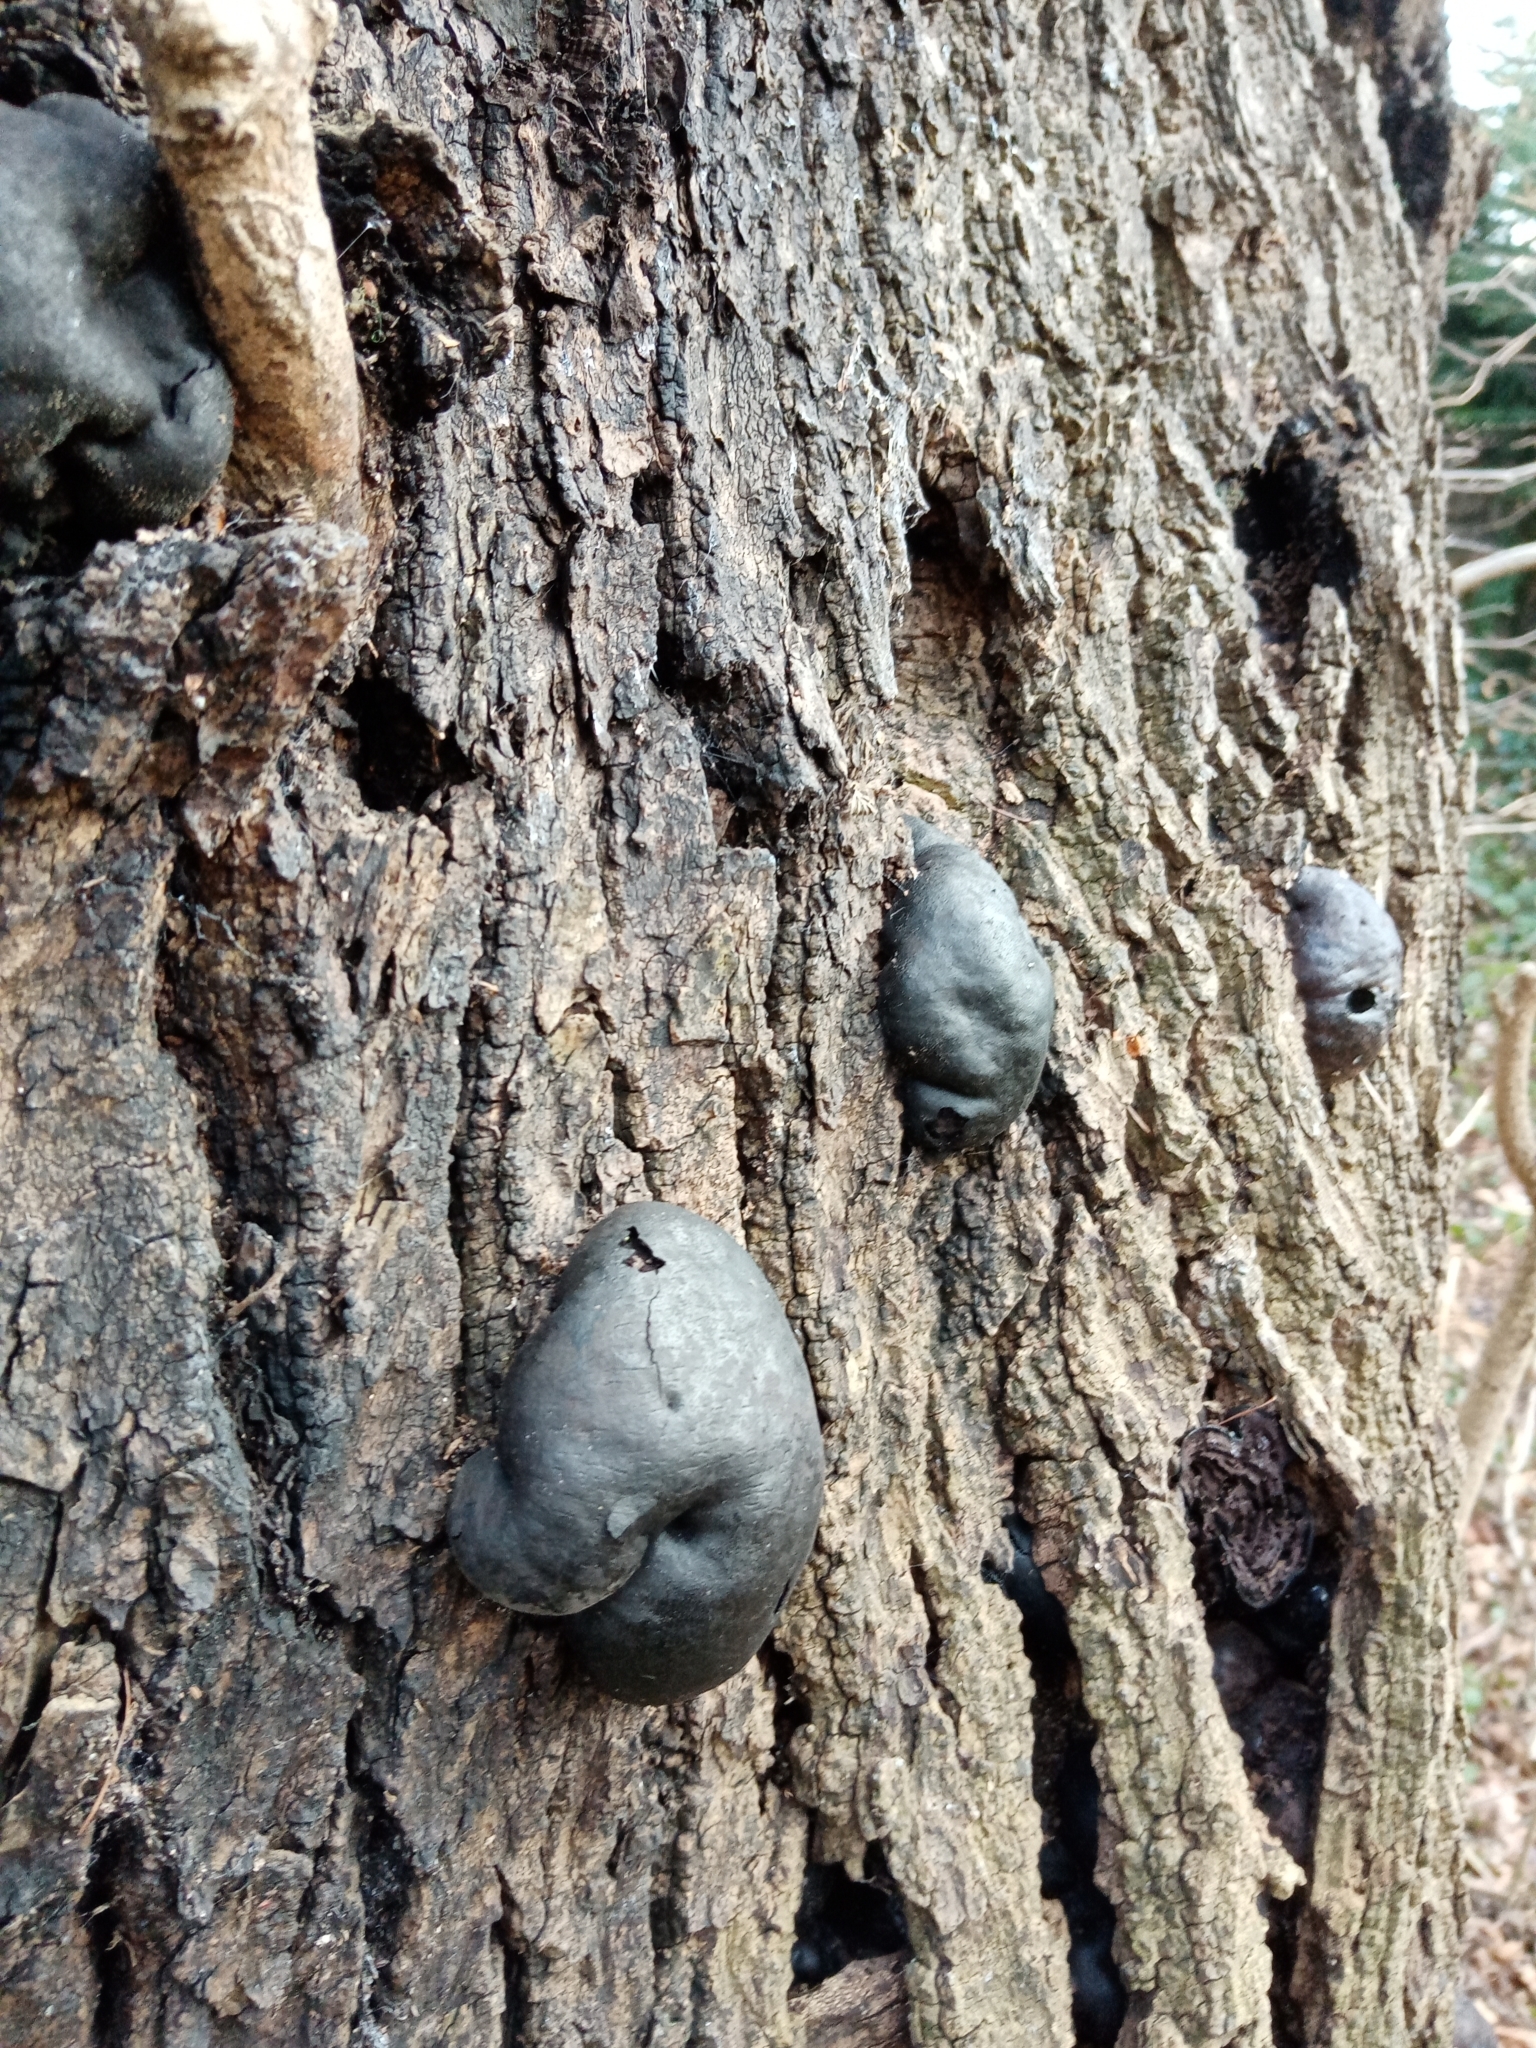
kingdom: Fungi
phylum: Ascomycota
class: Sordariomycetes
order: Xylariales
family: Hypoxylaceae
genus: Daldinia
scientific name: Daldinia concentrica
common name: Cramp balls
